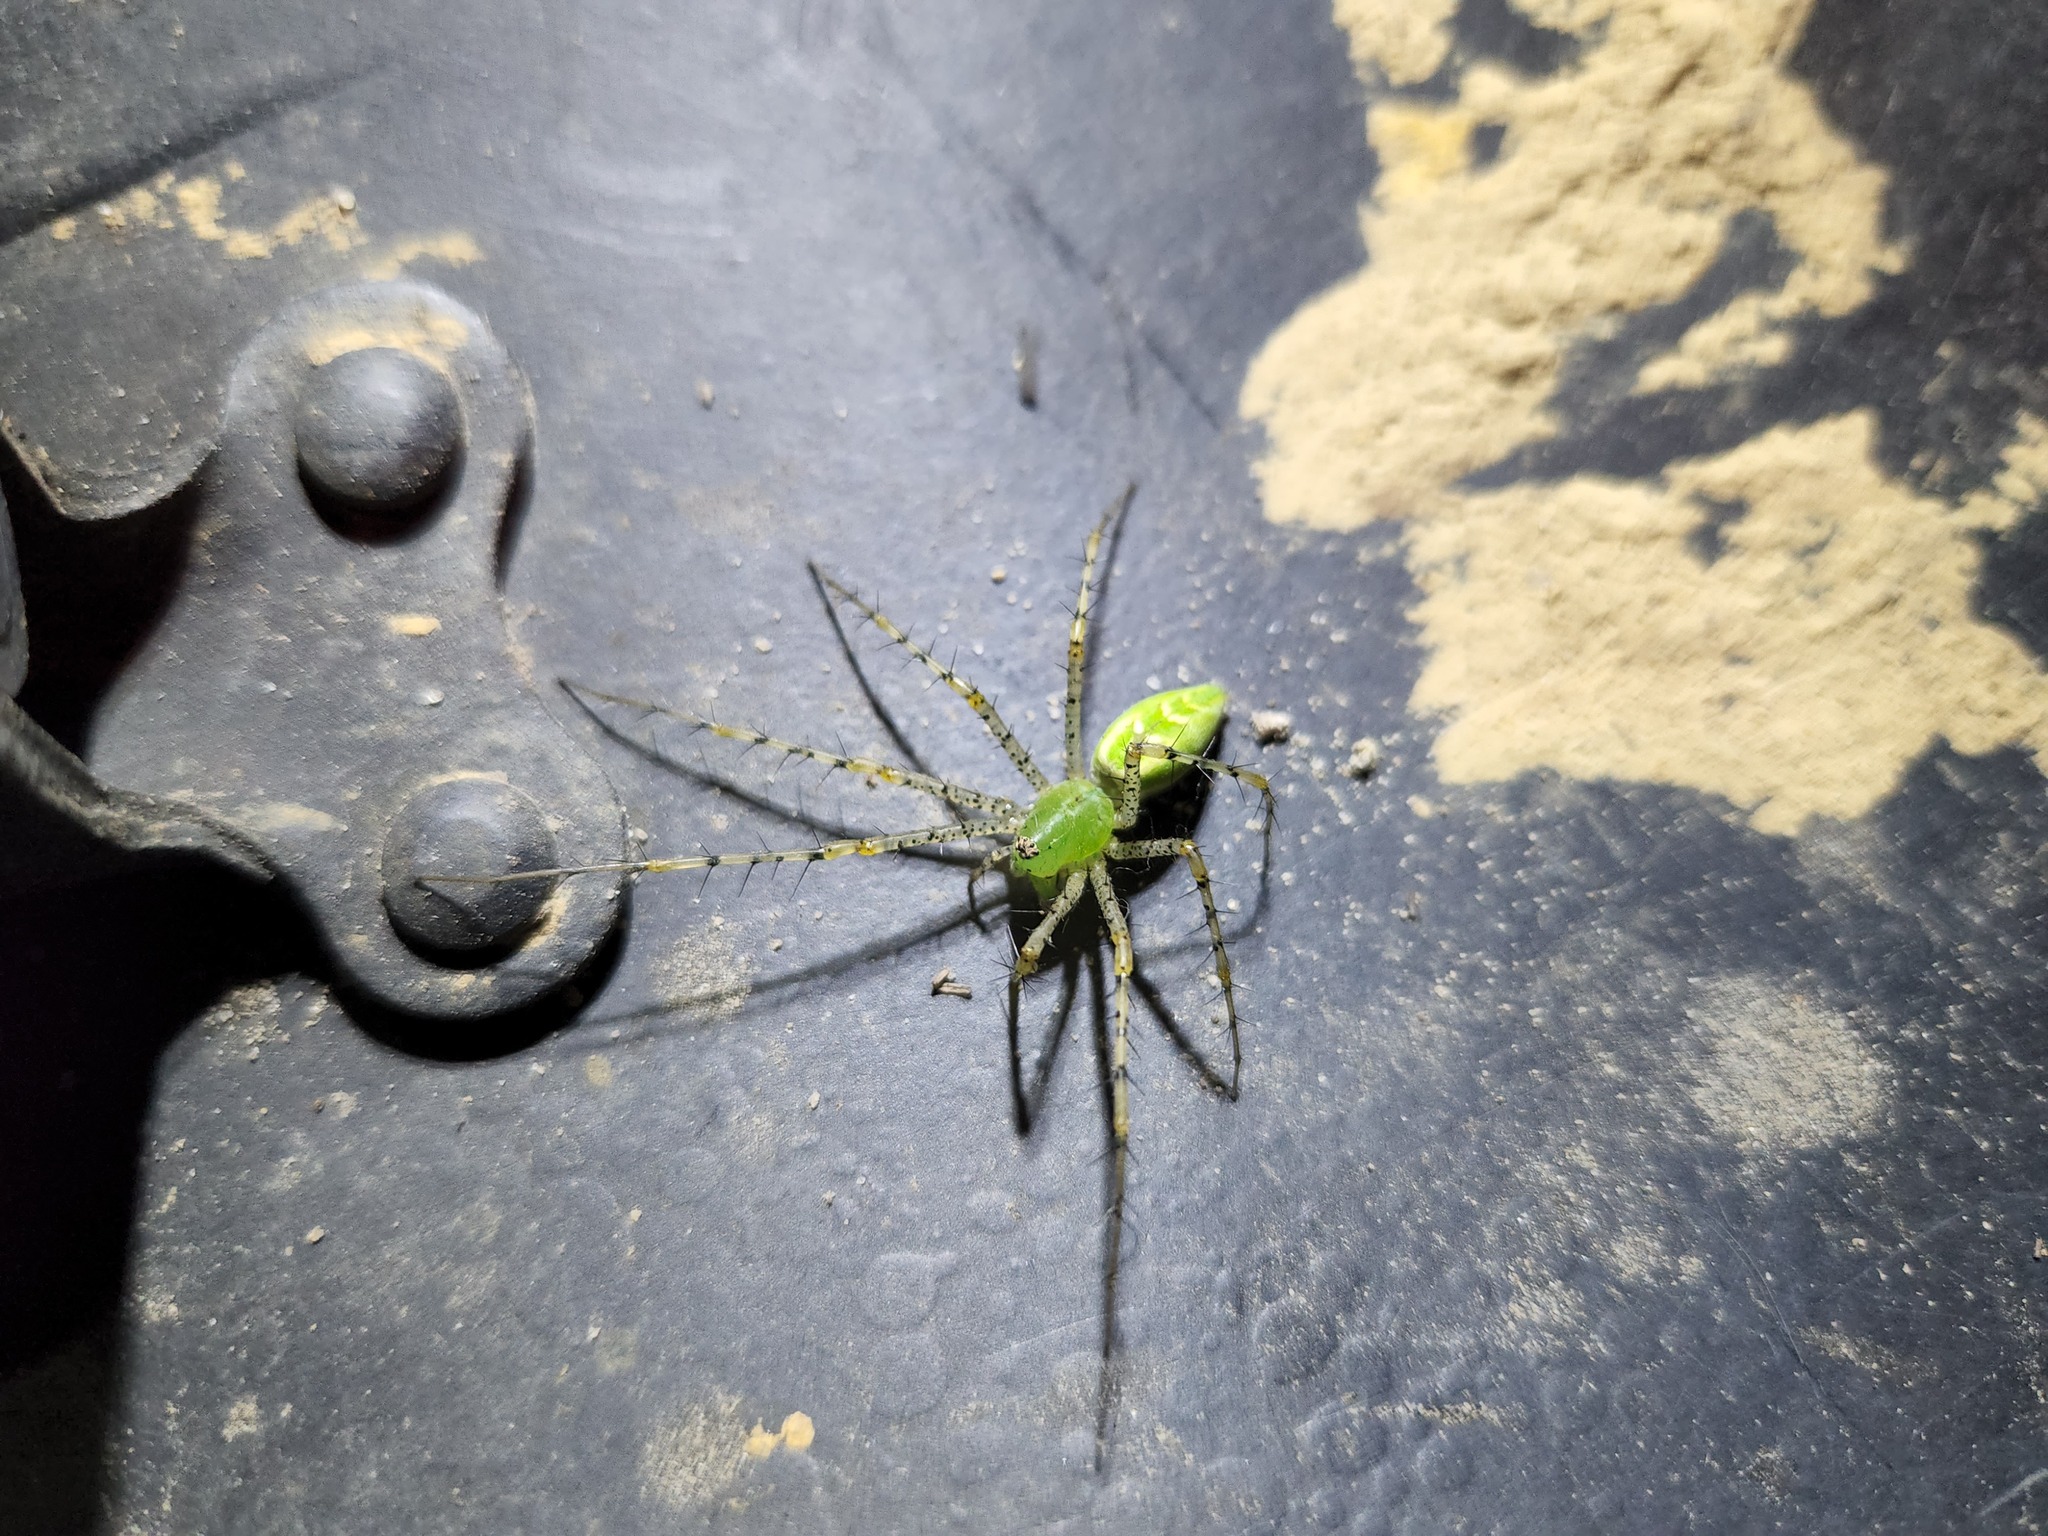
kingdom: Animalia
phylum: Arthropoda
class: Arachnida
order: Araneae
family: Oxyopidae
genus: Peucetia
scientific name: Peucetia viridans
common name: Lynx spiders
